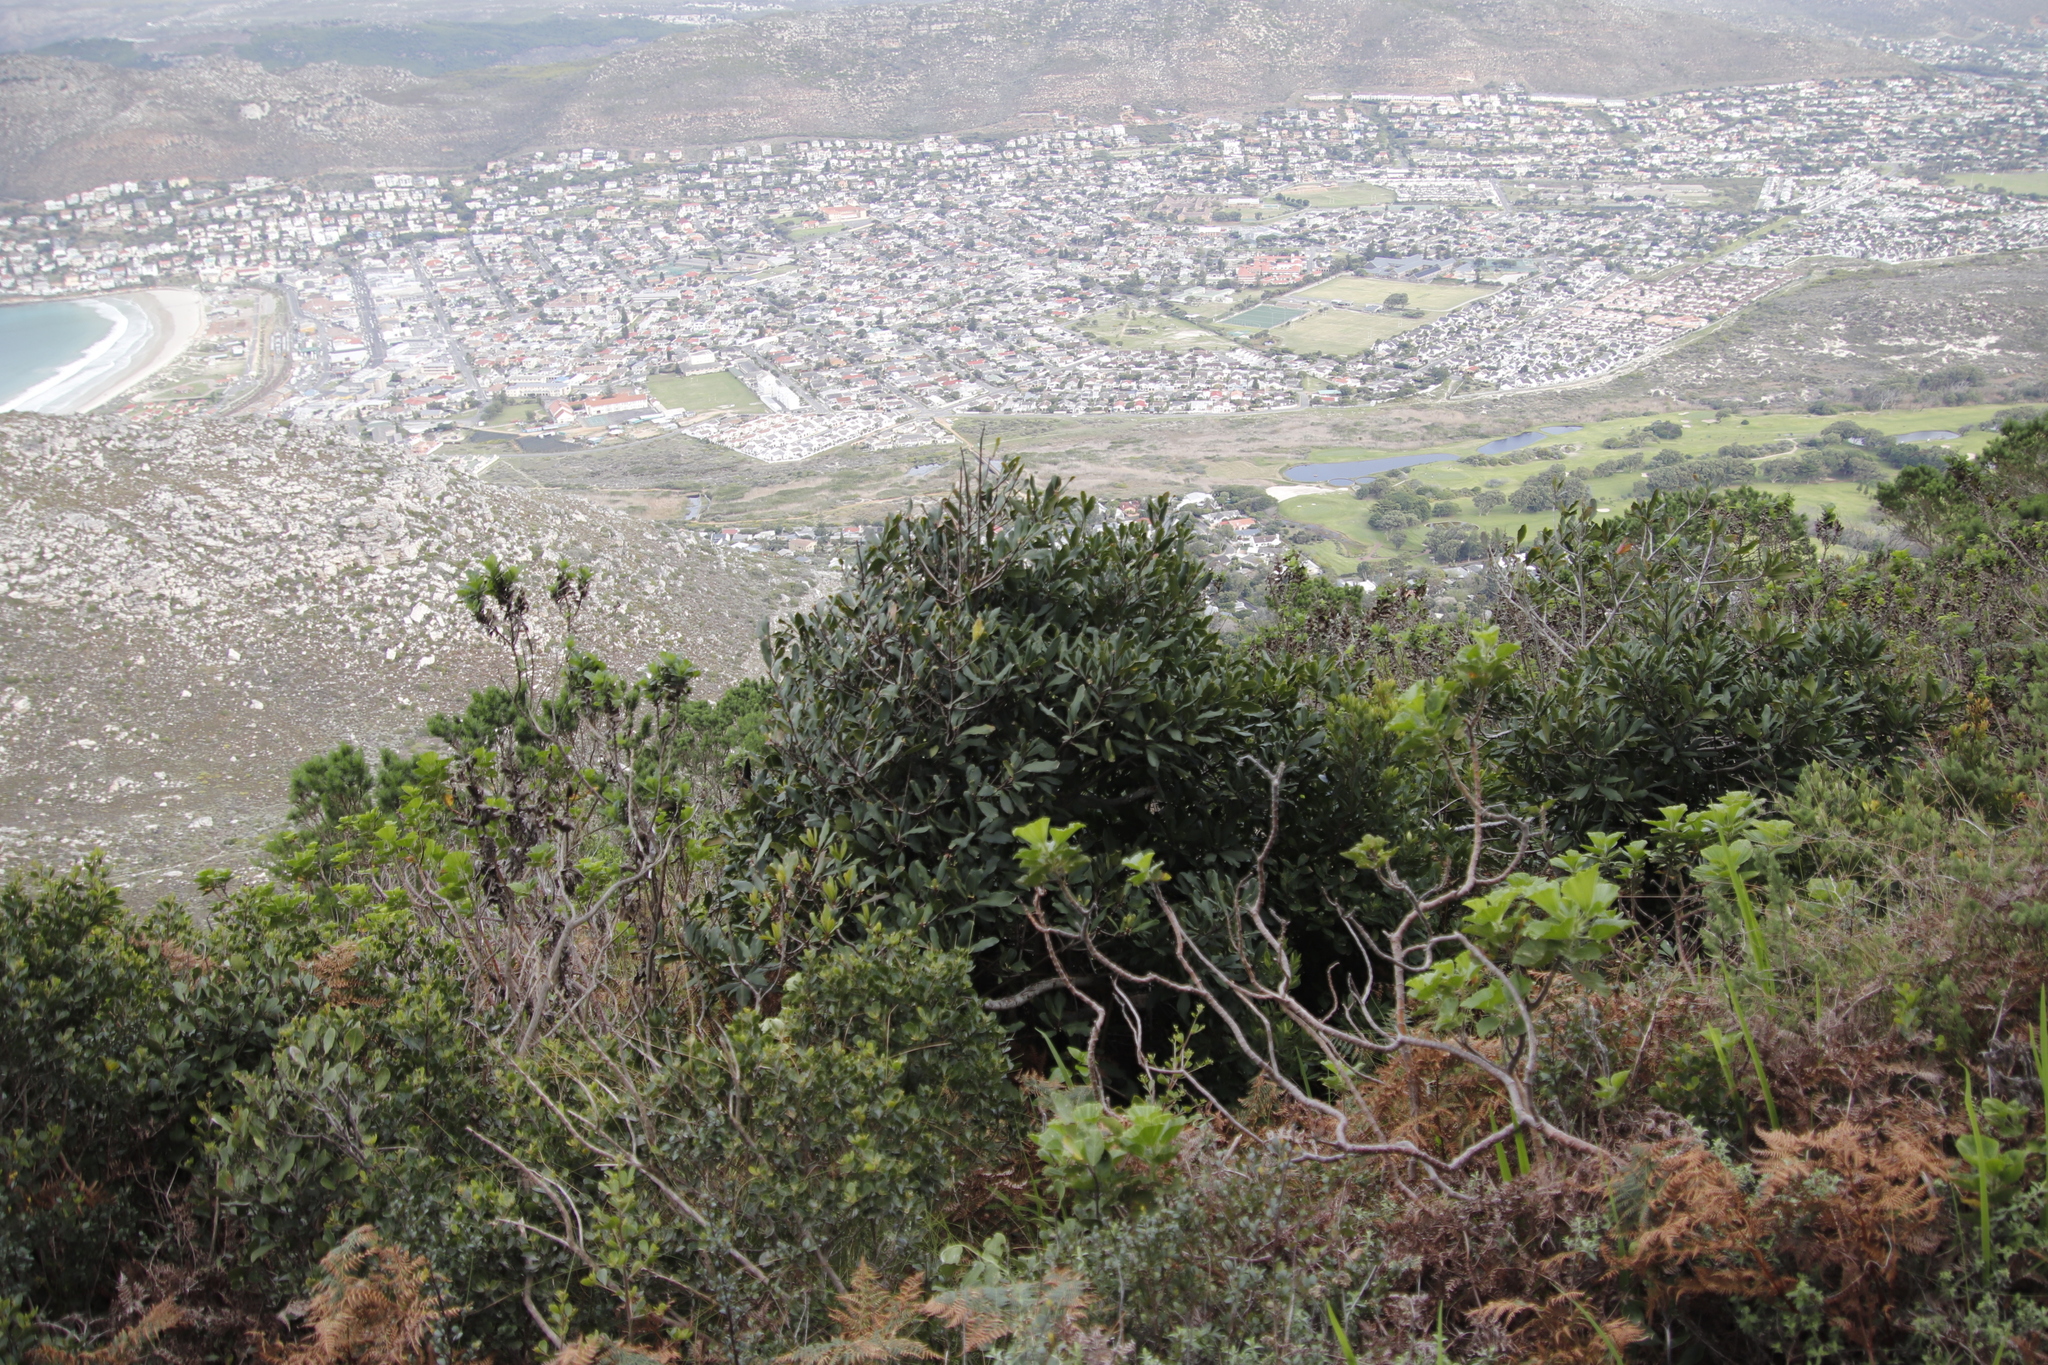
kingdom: Plantae
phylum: Tracheophyta
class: Magnoliopsida
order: Ericales
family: Primulaceae
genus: Myrsine
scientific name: Myrsine melanophloeos
